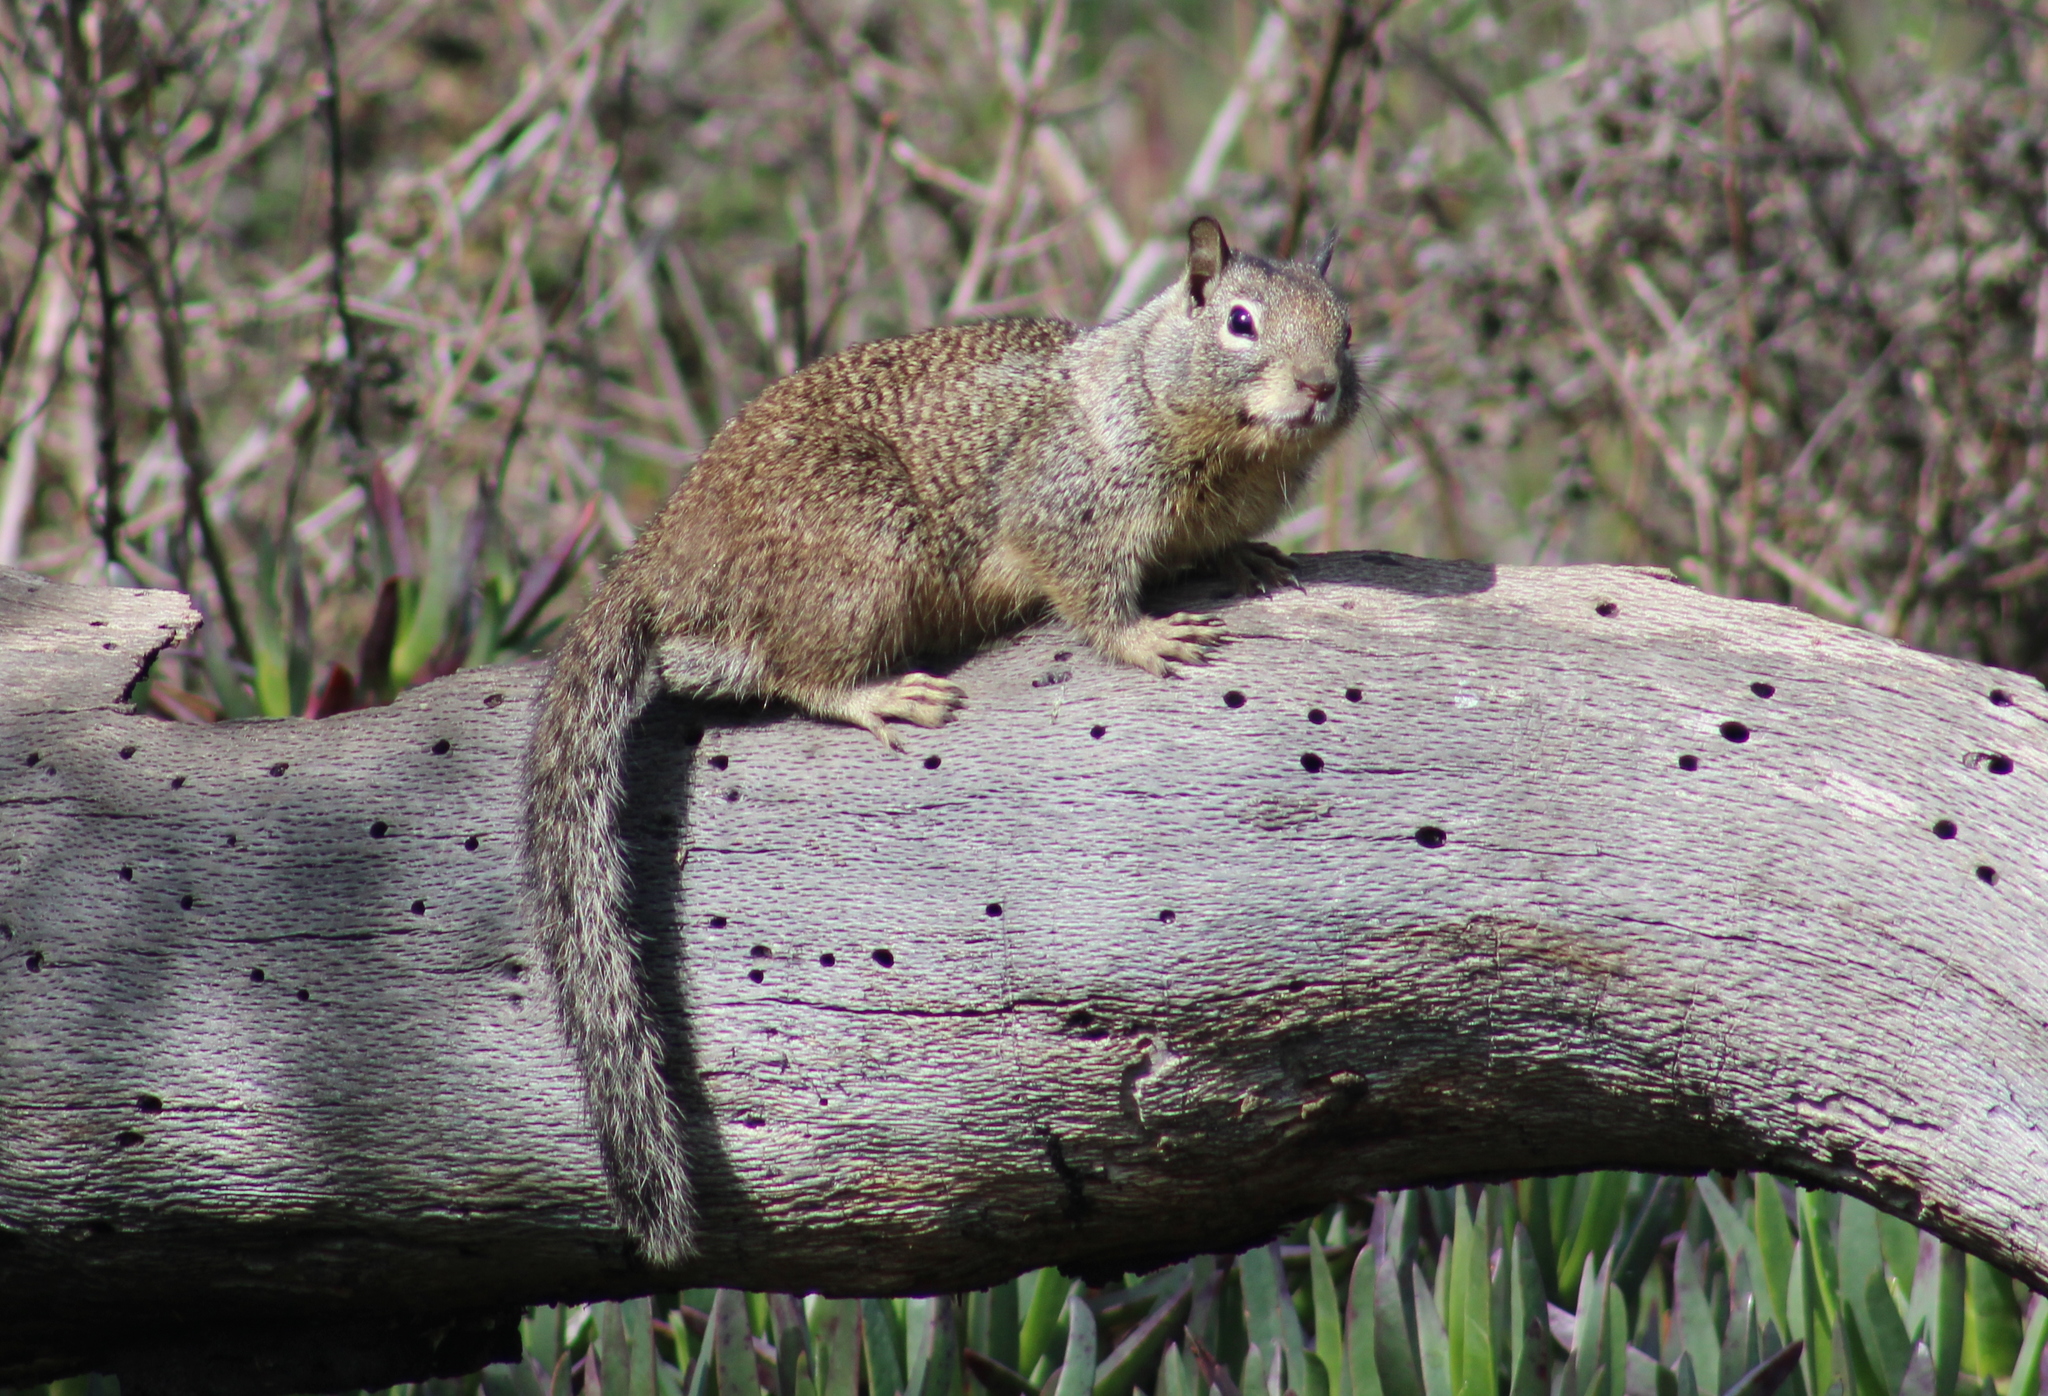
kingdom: Animalia
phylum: Chordata
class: Mammalia
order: Rodentia
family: Sciuridae
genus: Otospermophilus
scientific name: Otospermophilus beecheyi
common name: California ground squirrel
